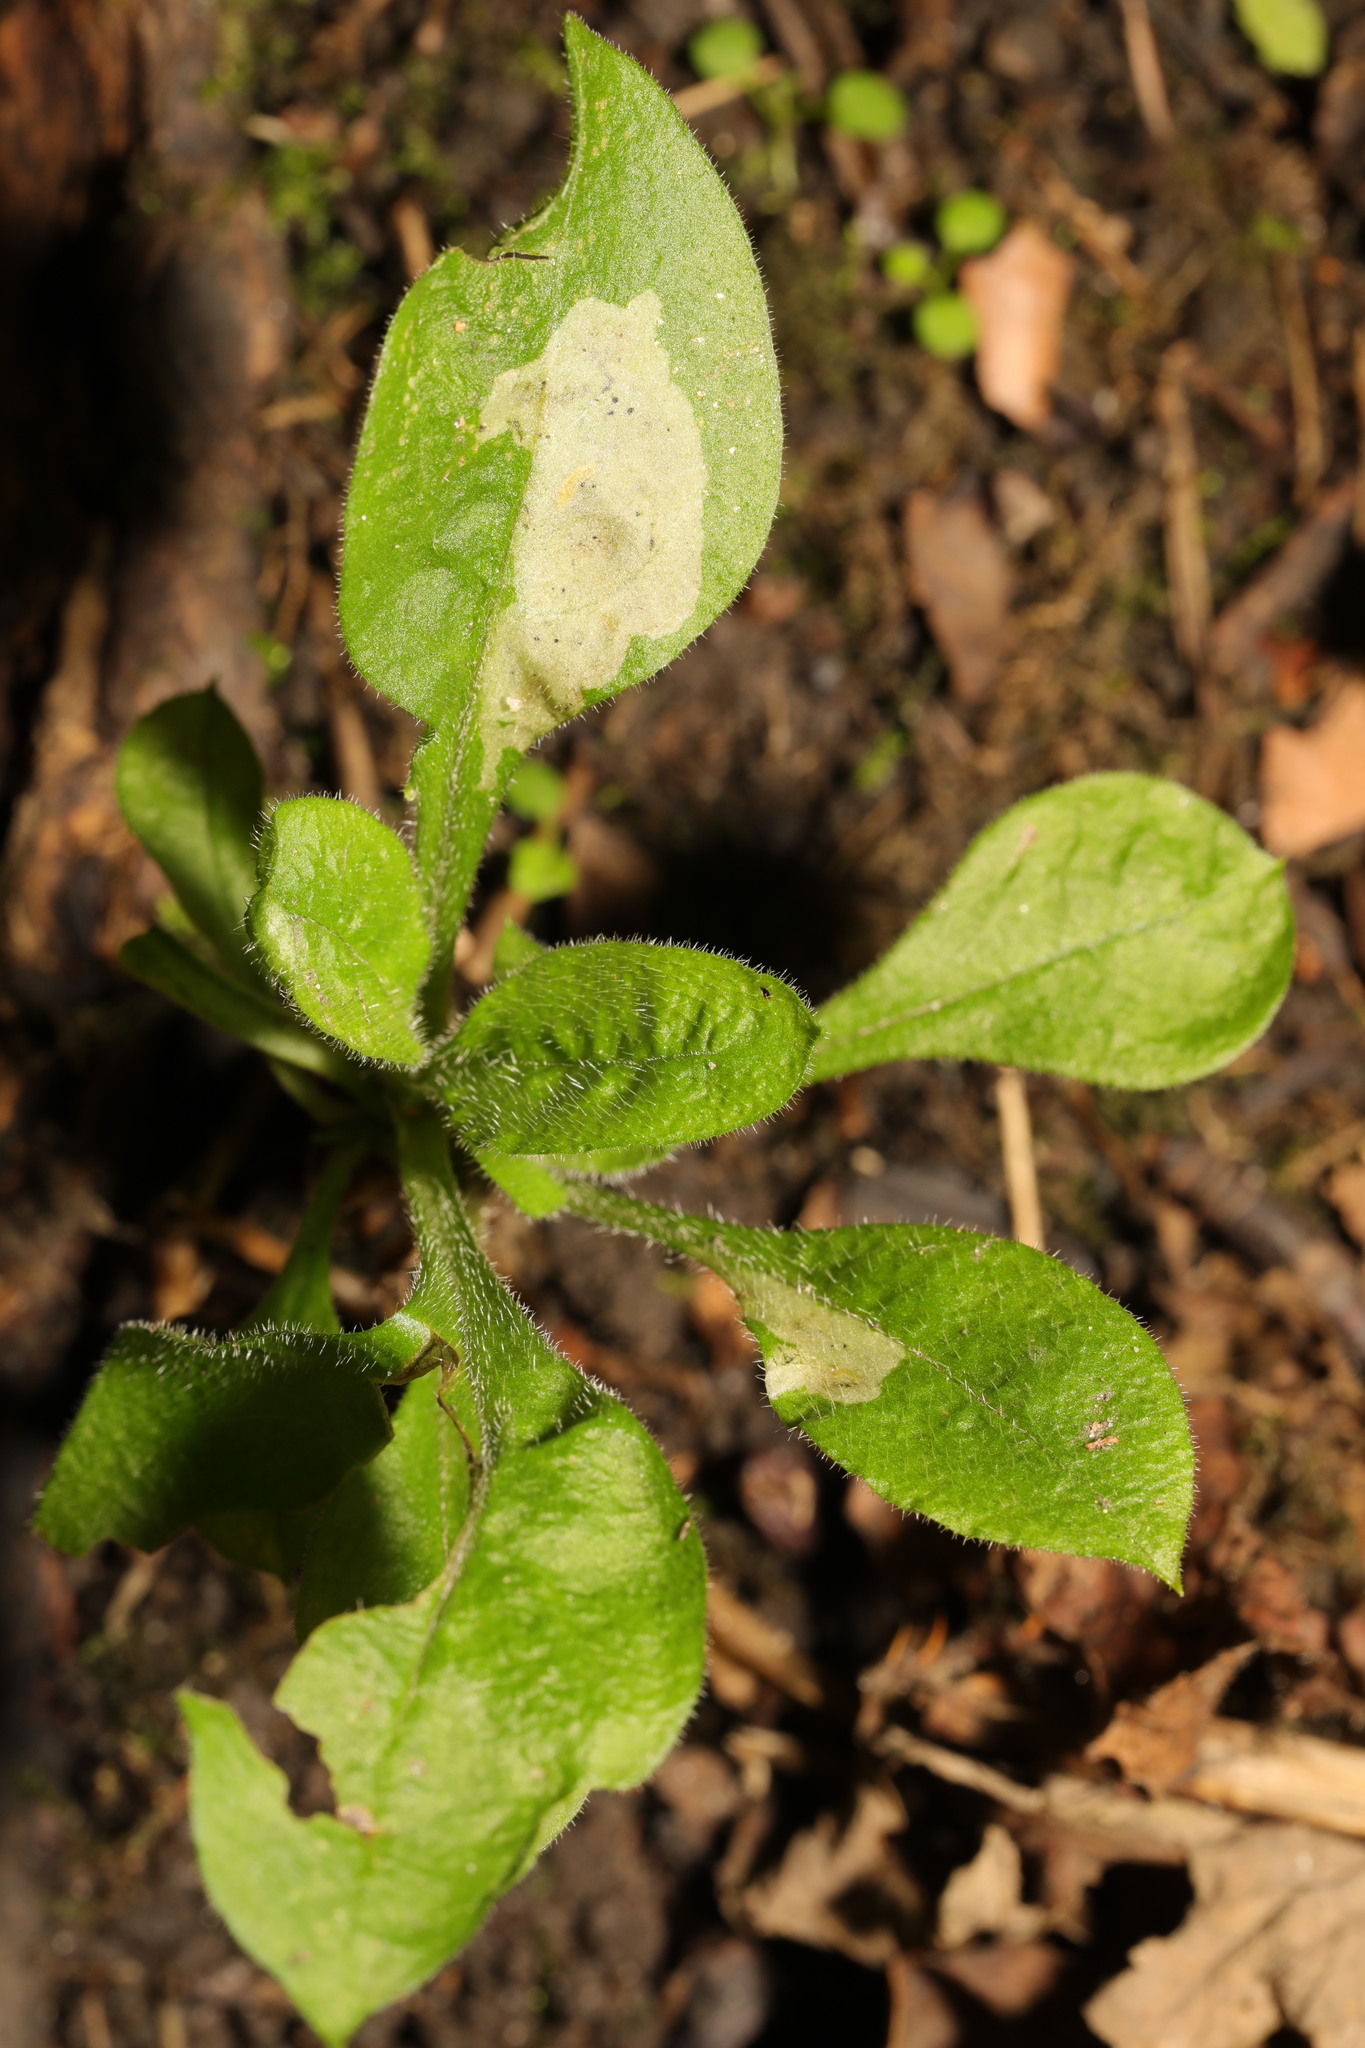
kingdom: Animalia
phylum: Arthropoda
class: Insecta
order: Diptera
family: Agromyzidae
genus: Amauromyza
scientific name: Amauromyza flavifrons
